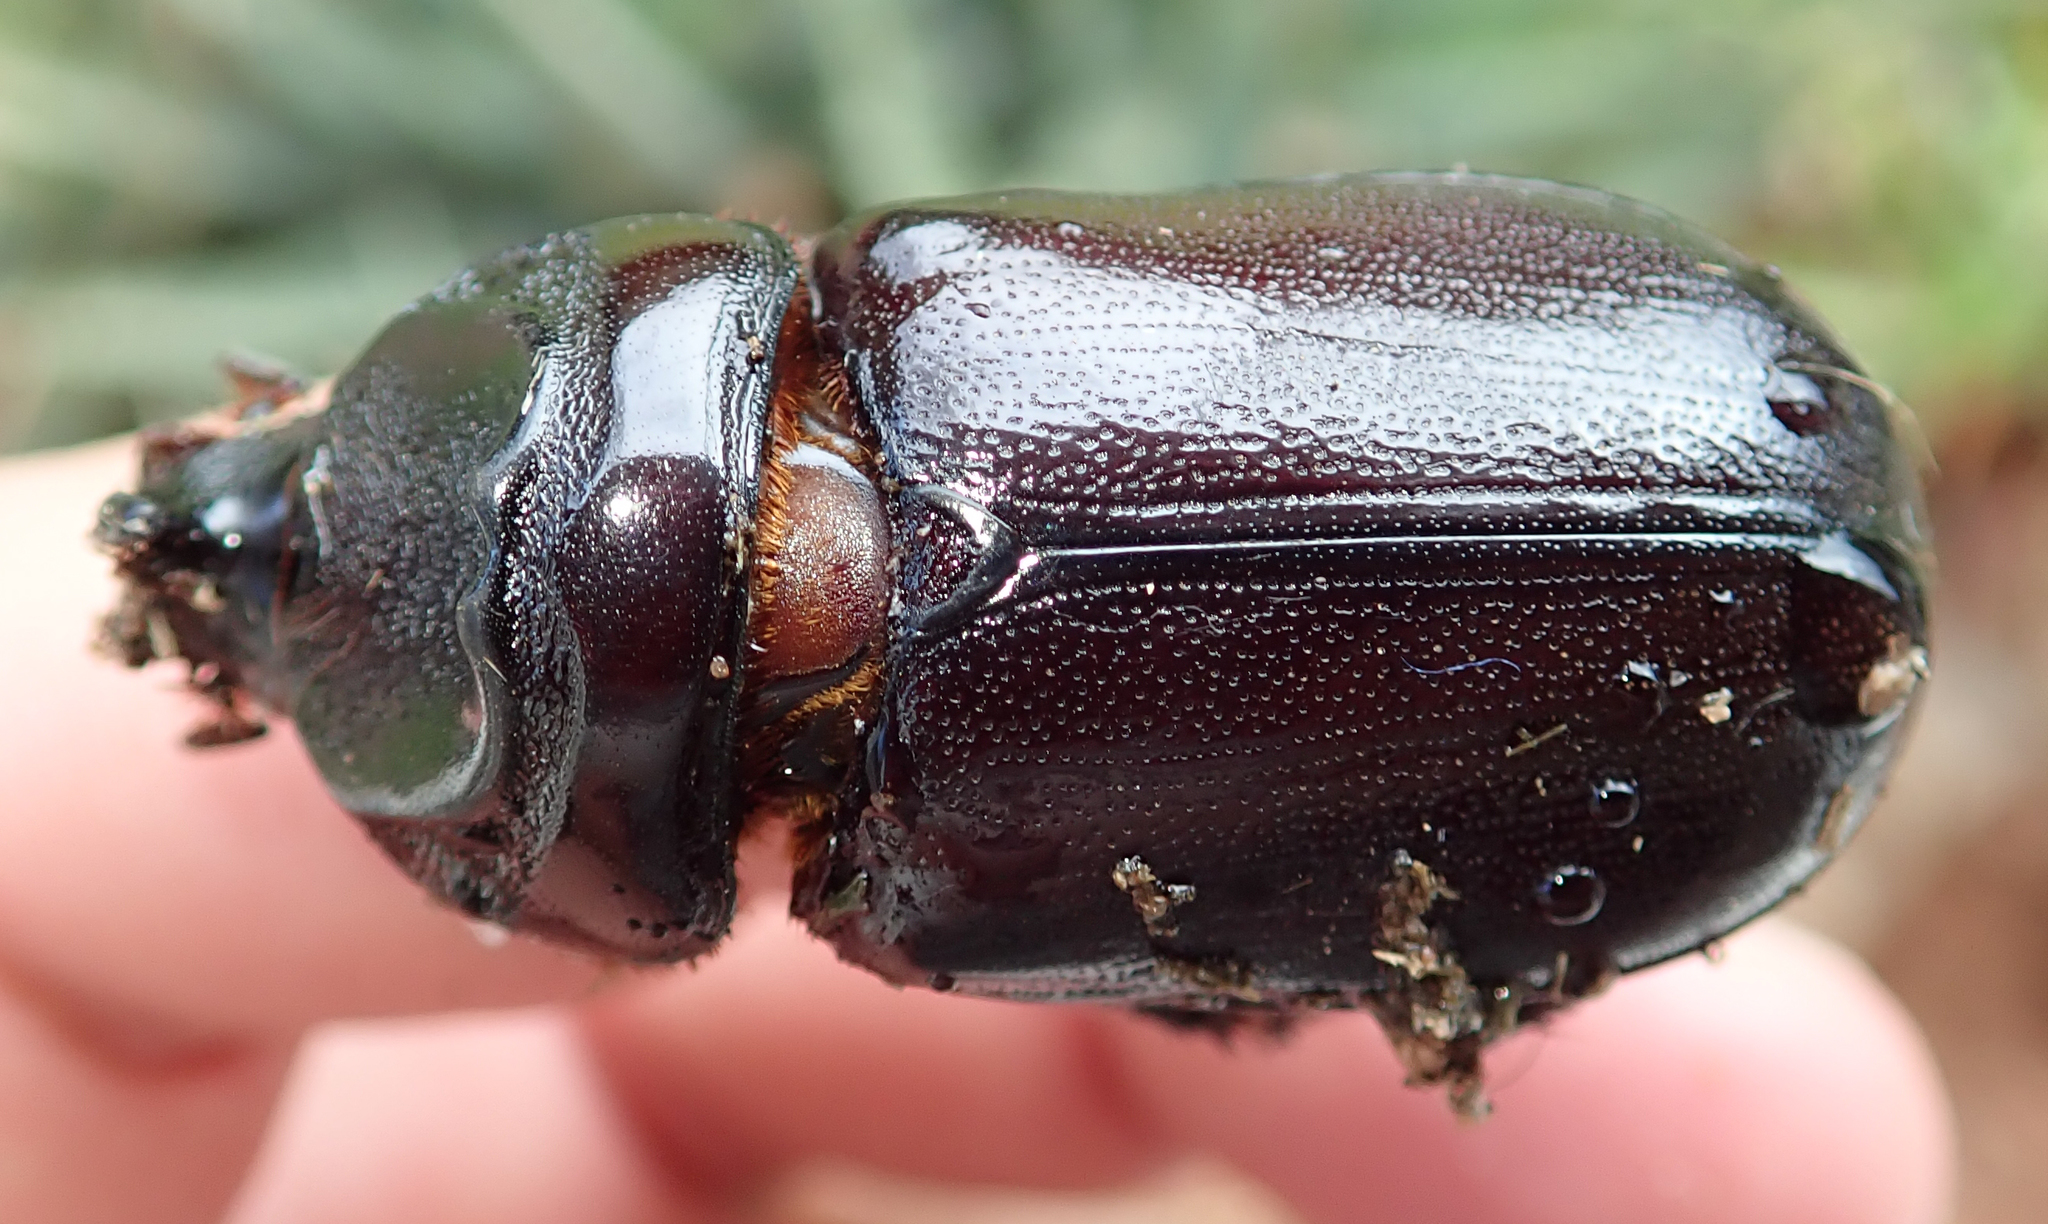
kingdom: Animalia
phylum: Arthropoda
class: Insecta
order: Coleoptera
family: Scarabaeidae
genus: Oryctes
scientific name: Oryctes monoceros
